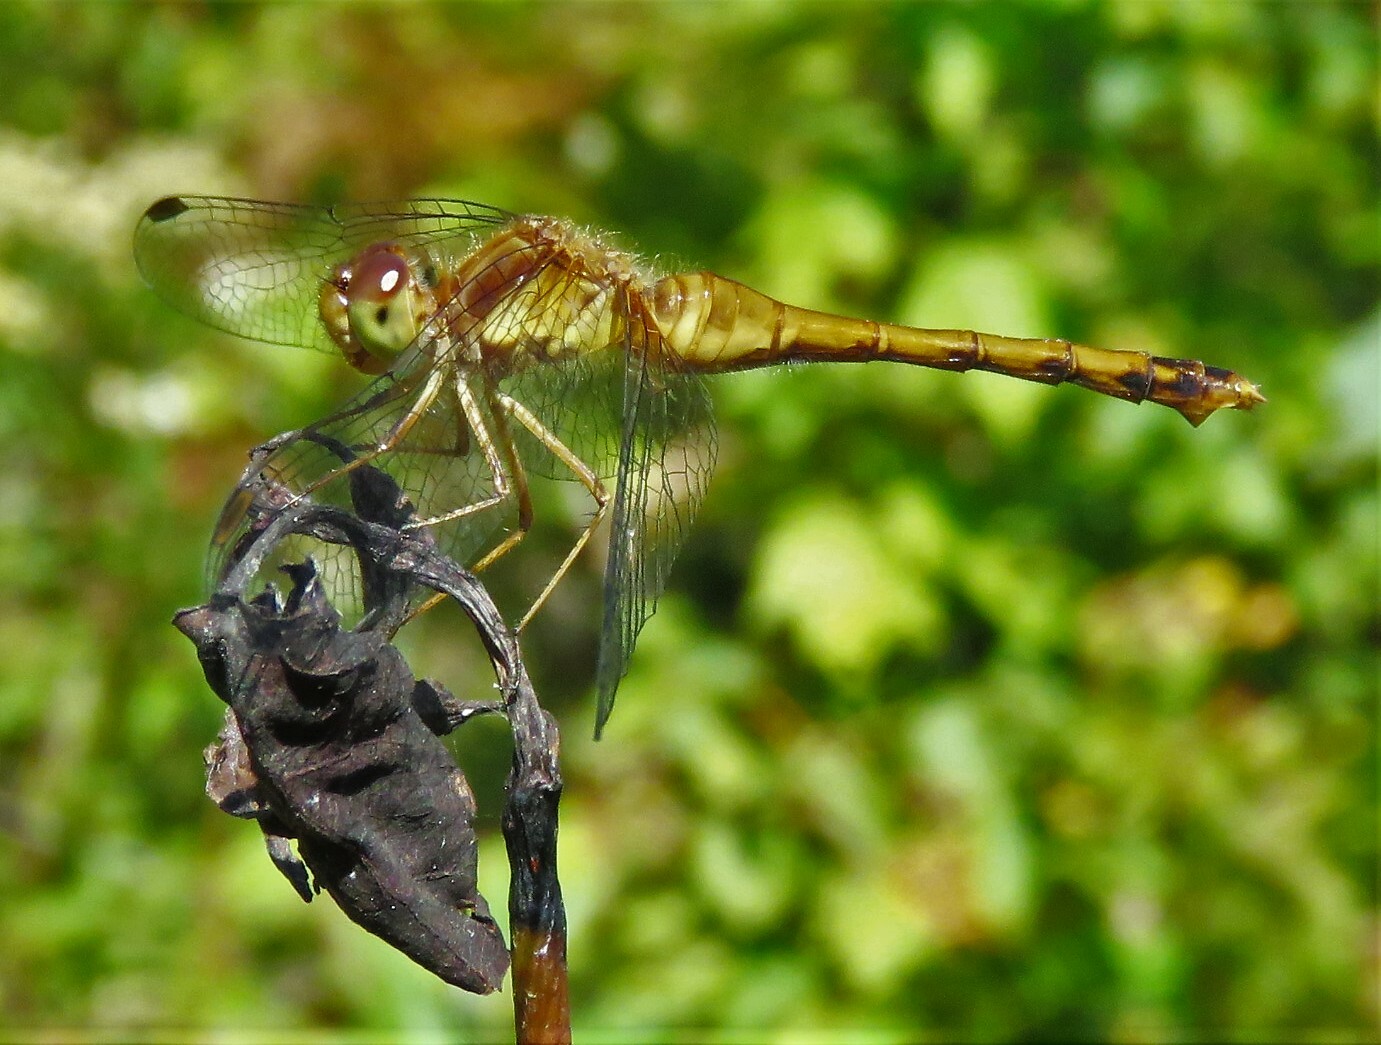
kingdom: Animalia
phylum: Arthropoda
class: Insecta
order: Odonata
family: Libellulidae
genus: Sympetrum
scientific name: Sympetrum vicinum
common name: Autumn meadowhawk
